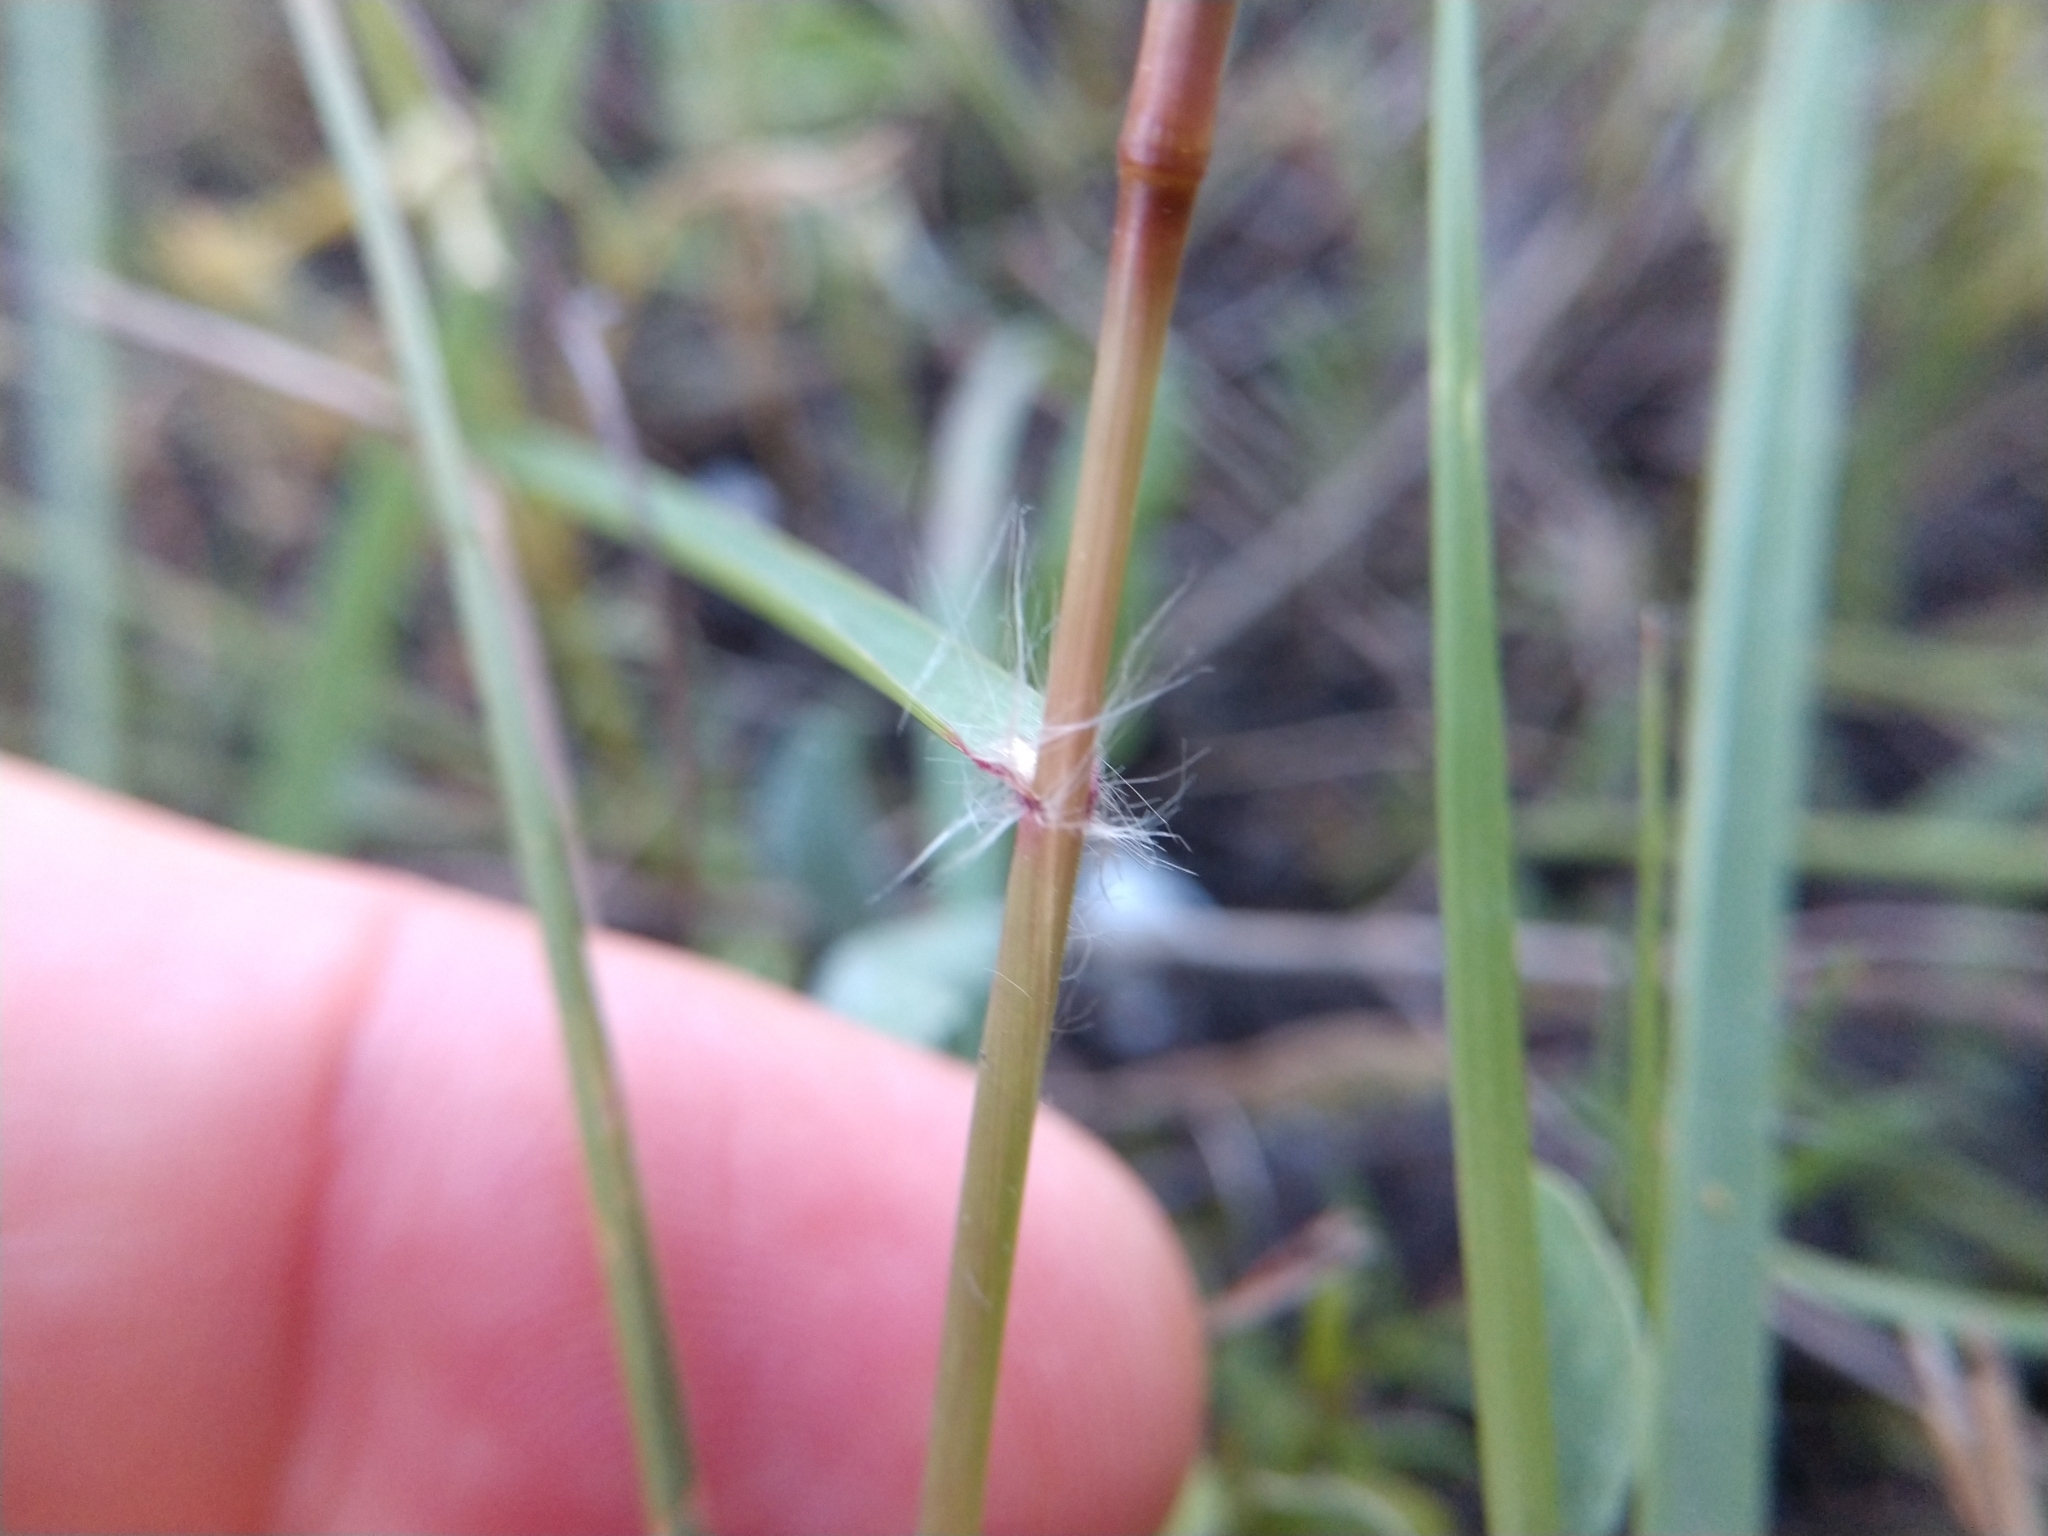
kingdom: Plantae
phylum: Tracheophyta
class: Liliopsida
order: Poales
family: Poaceae
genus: Eragrostis
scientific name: Eragrostis intermedia
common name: Plains love grass
